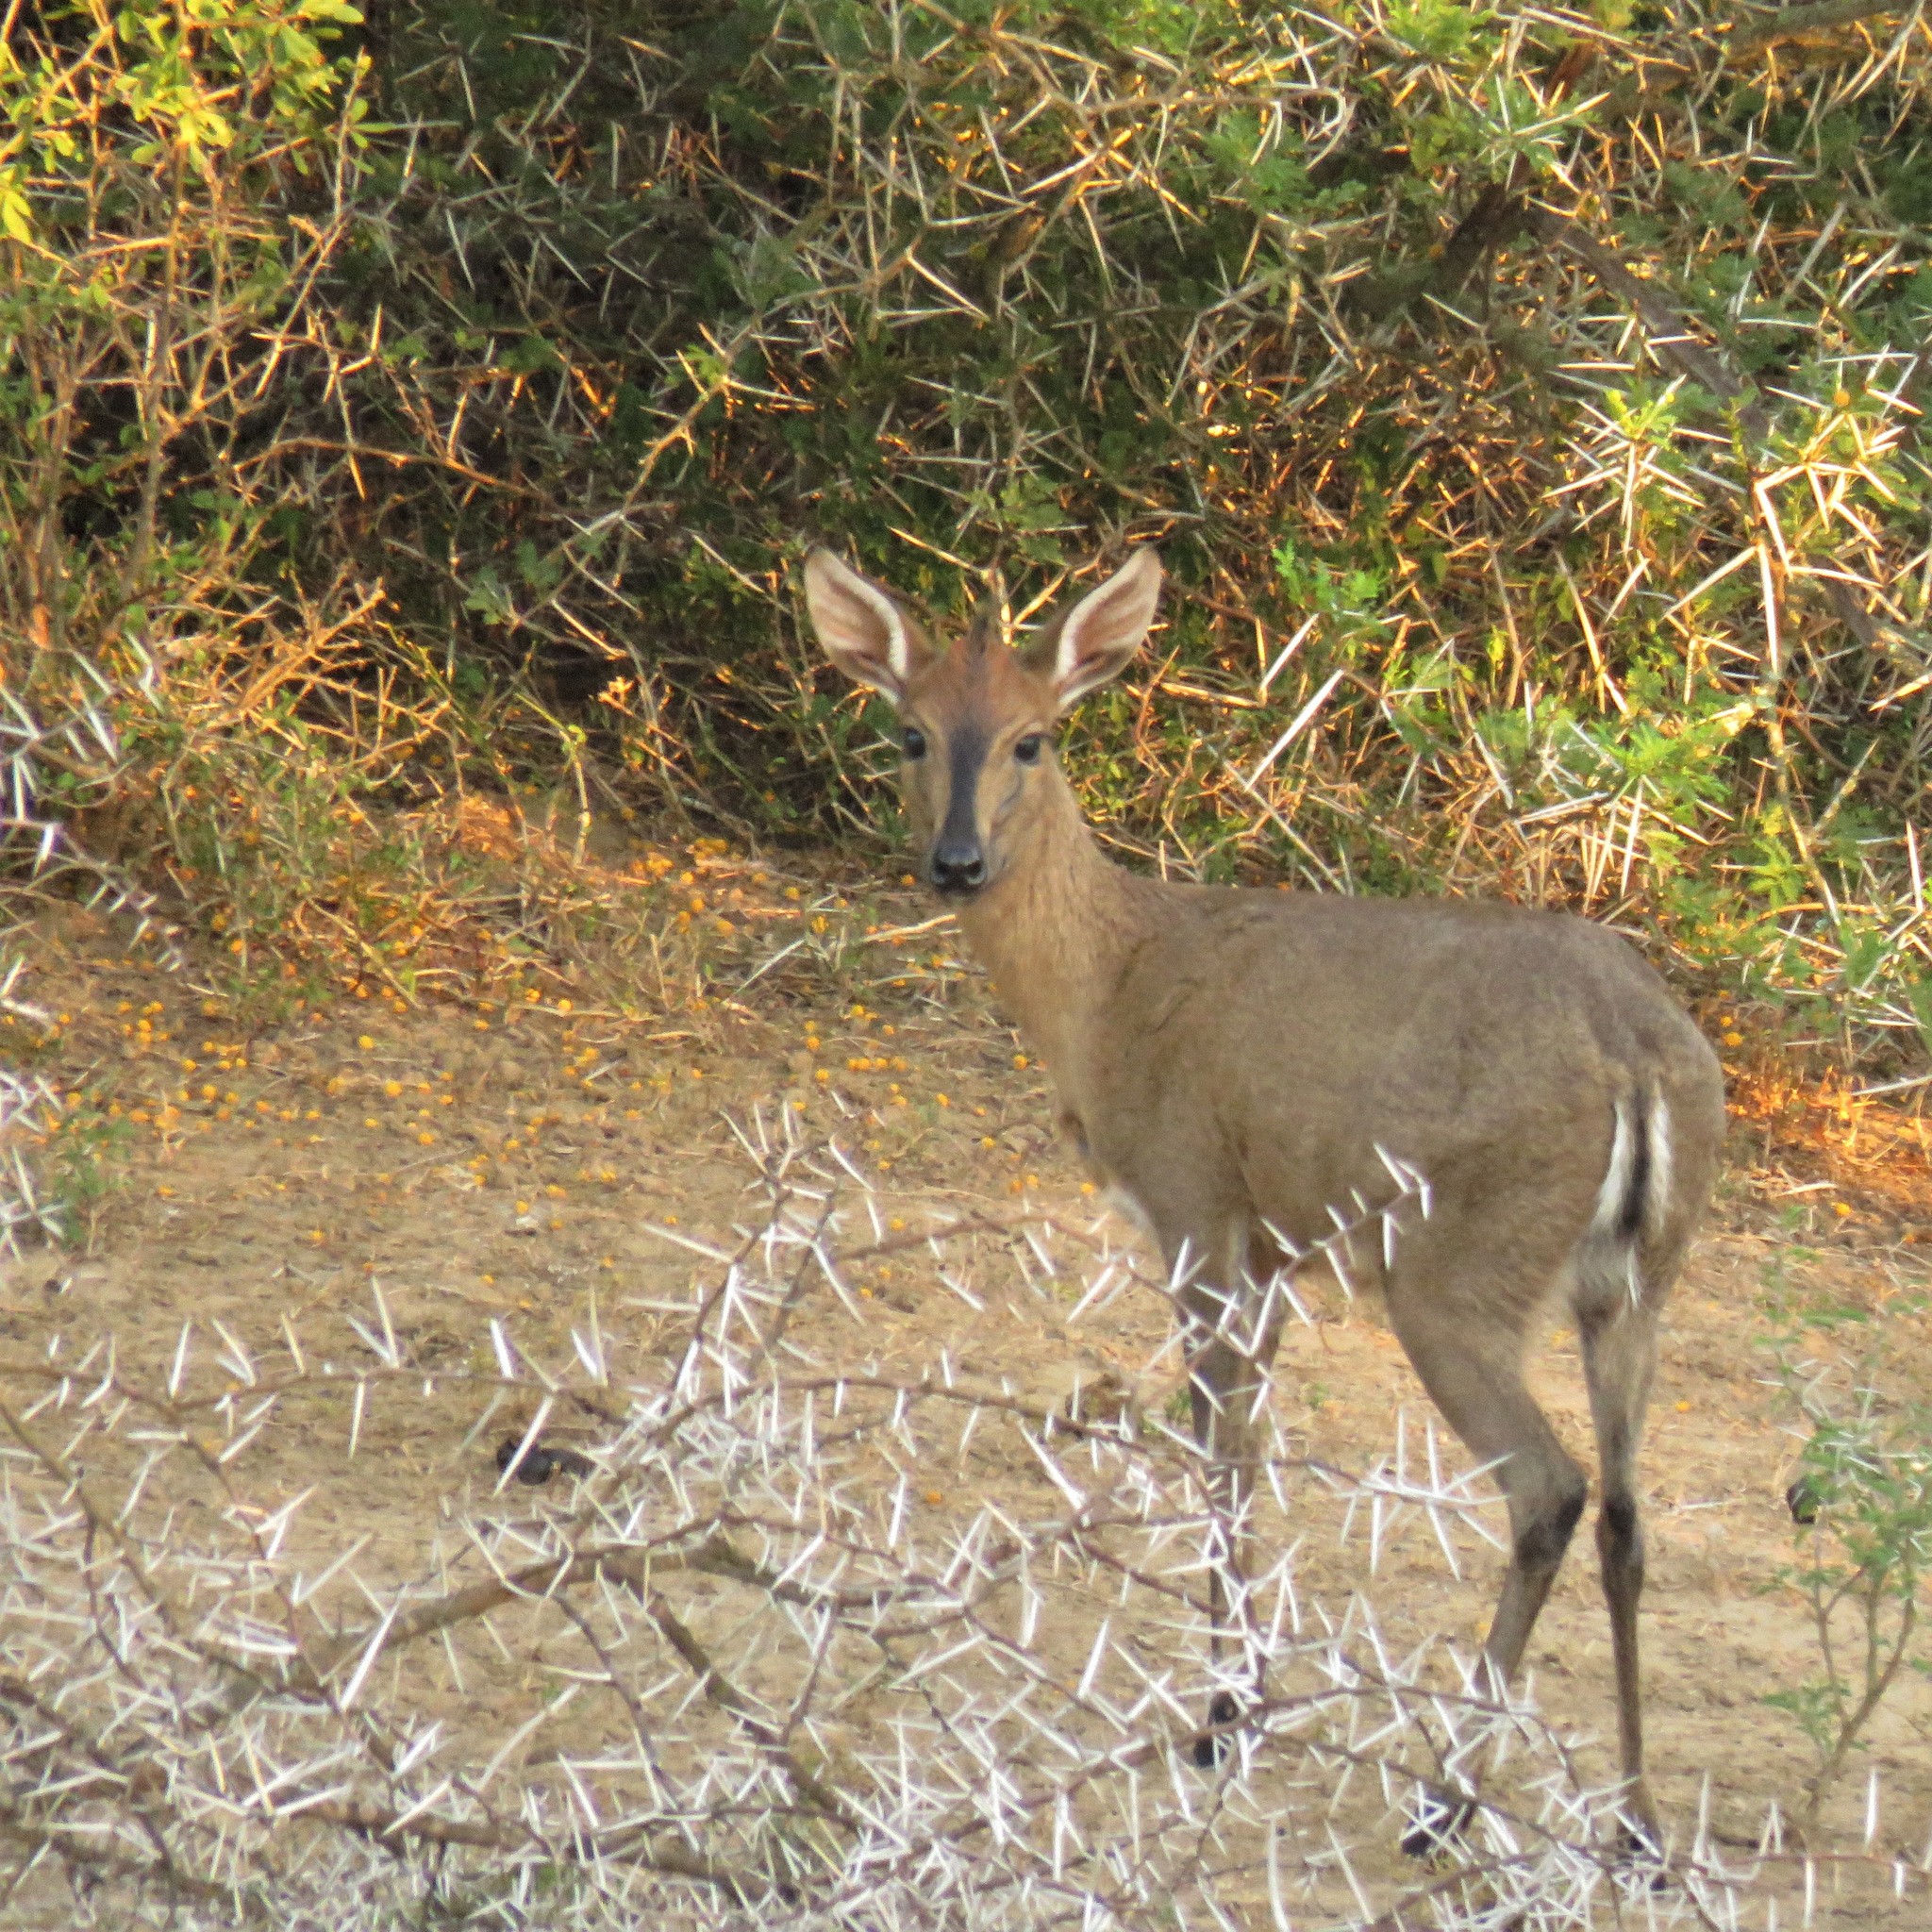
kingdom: Animalia
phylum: Chordata
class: Mammalia
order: Artiodactyla
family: Bovidae
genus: Sylvicapra
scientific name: Sylvicapra grimmia
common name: Bush duiker
